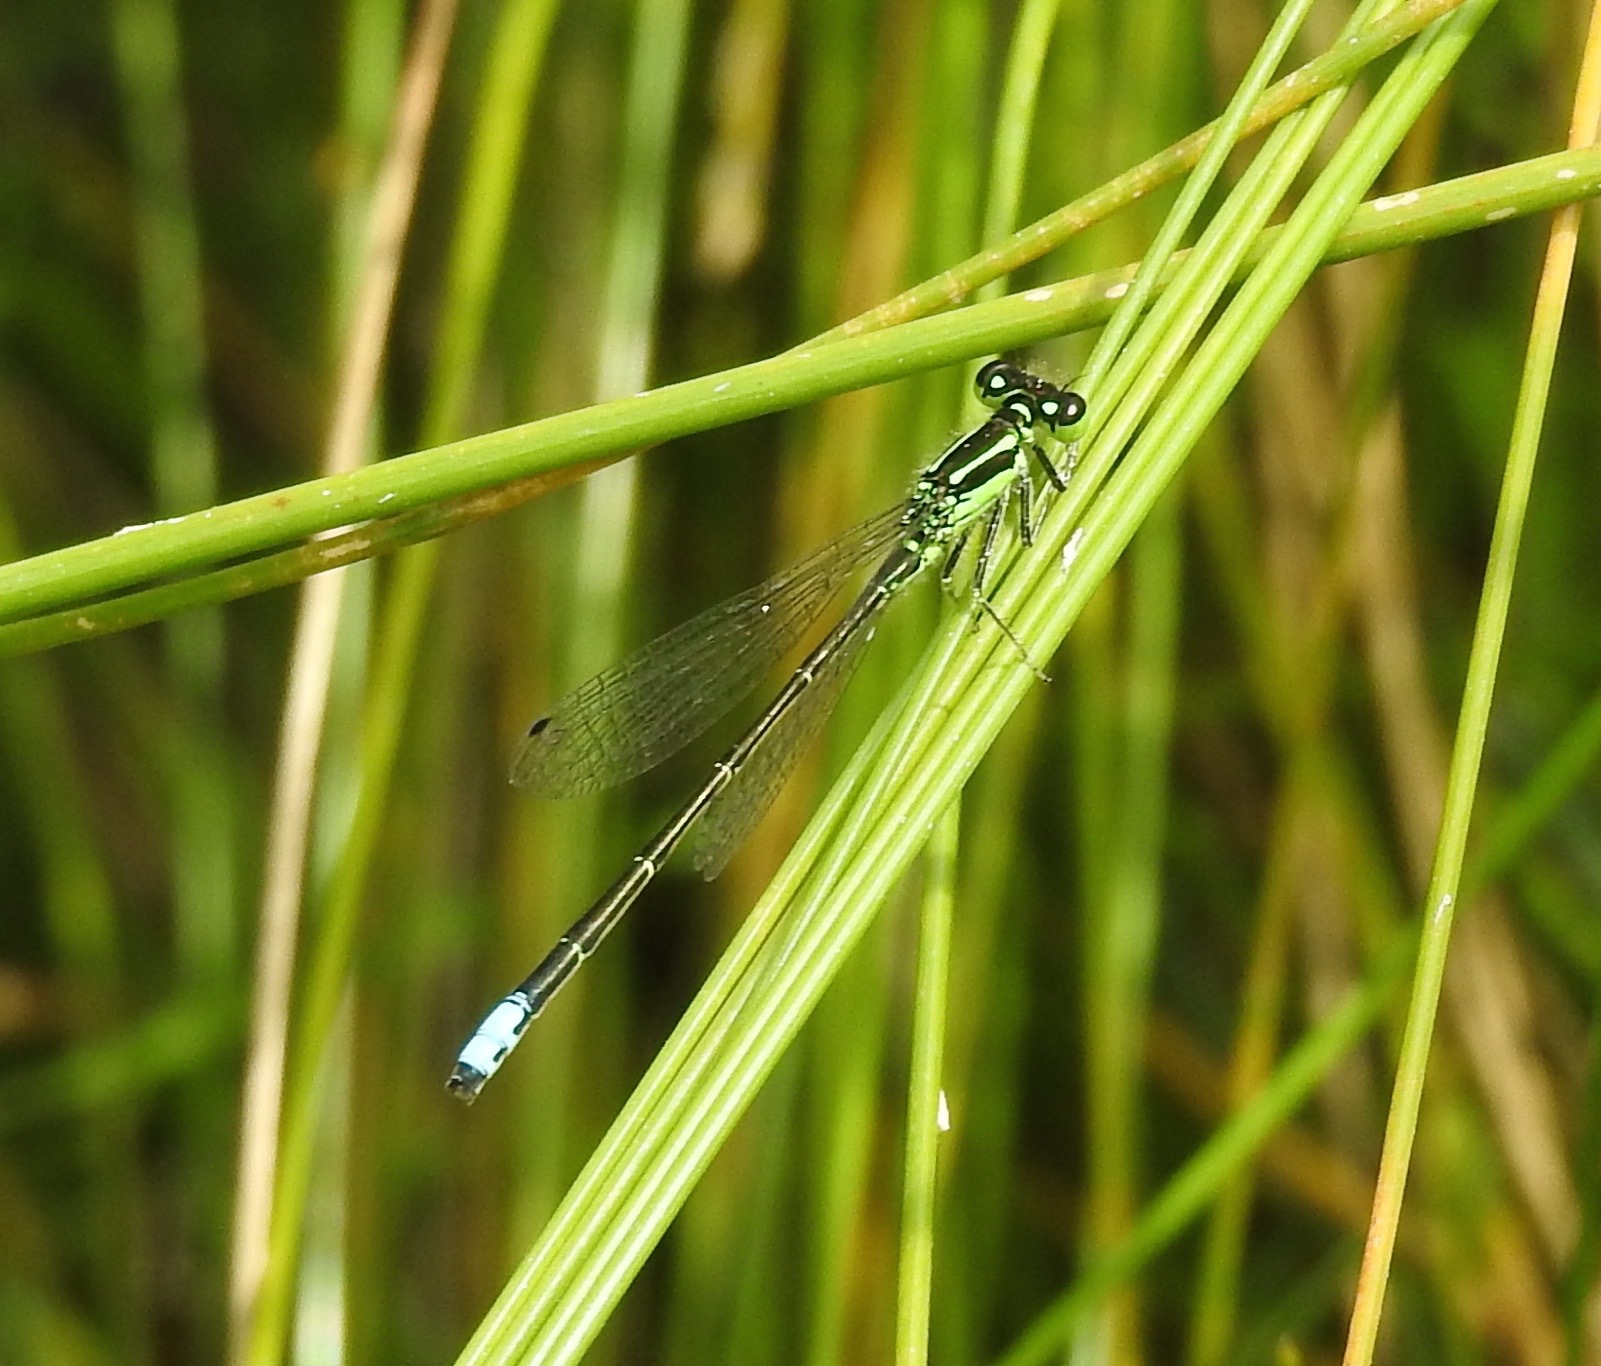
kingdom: Animalia
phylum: Arthropoda
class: Insecta
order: Odonata
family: Coenagrionidae
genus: Ischnura
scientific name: Ischnura verticalis
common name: Eastern forktail
